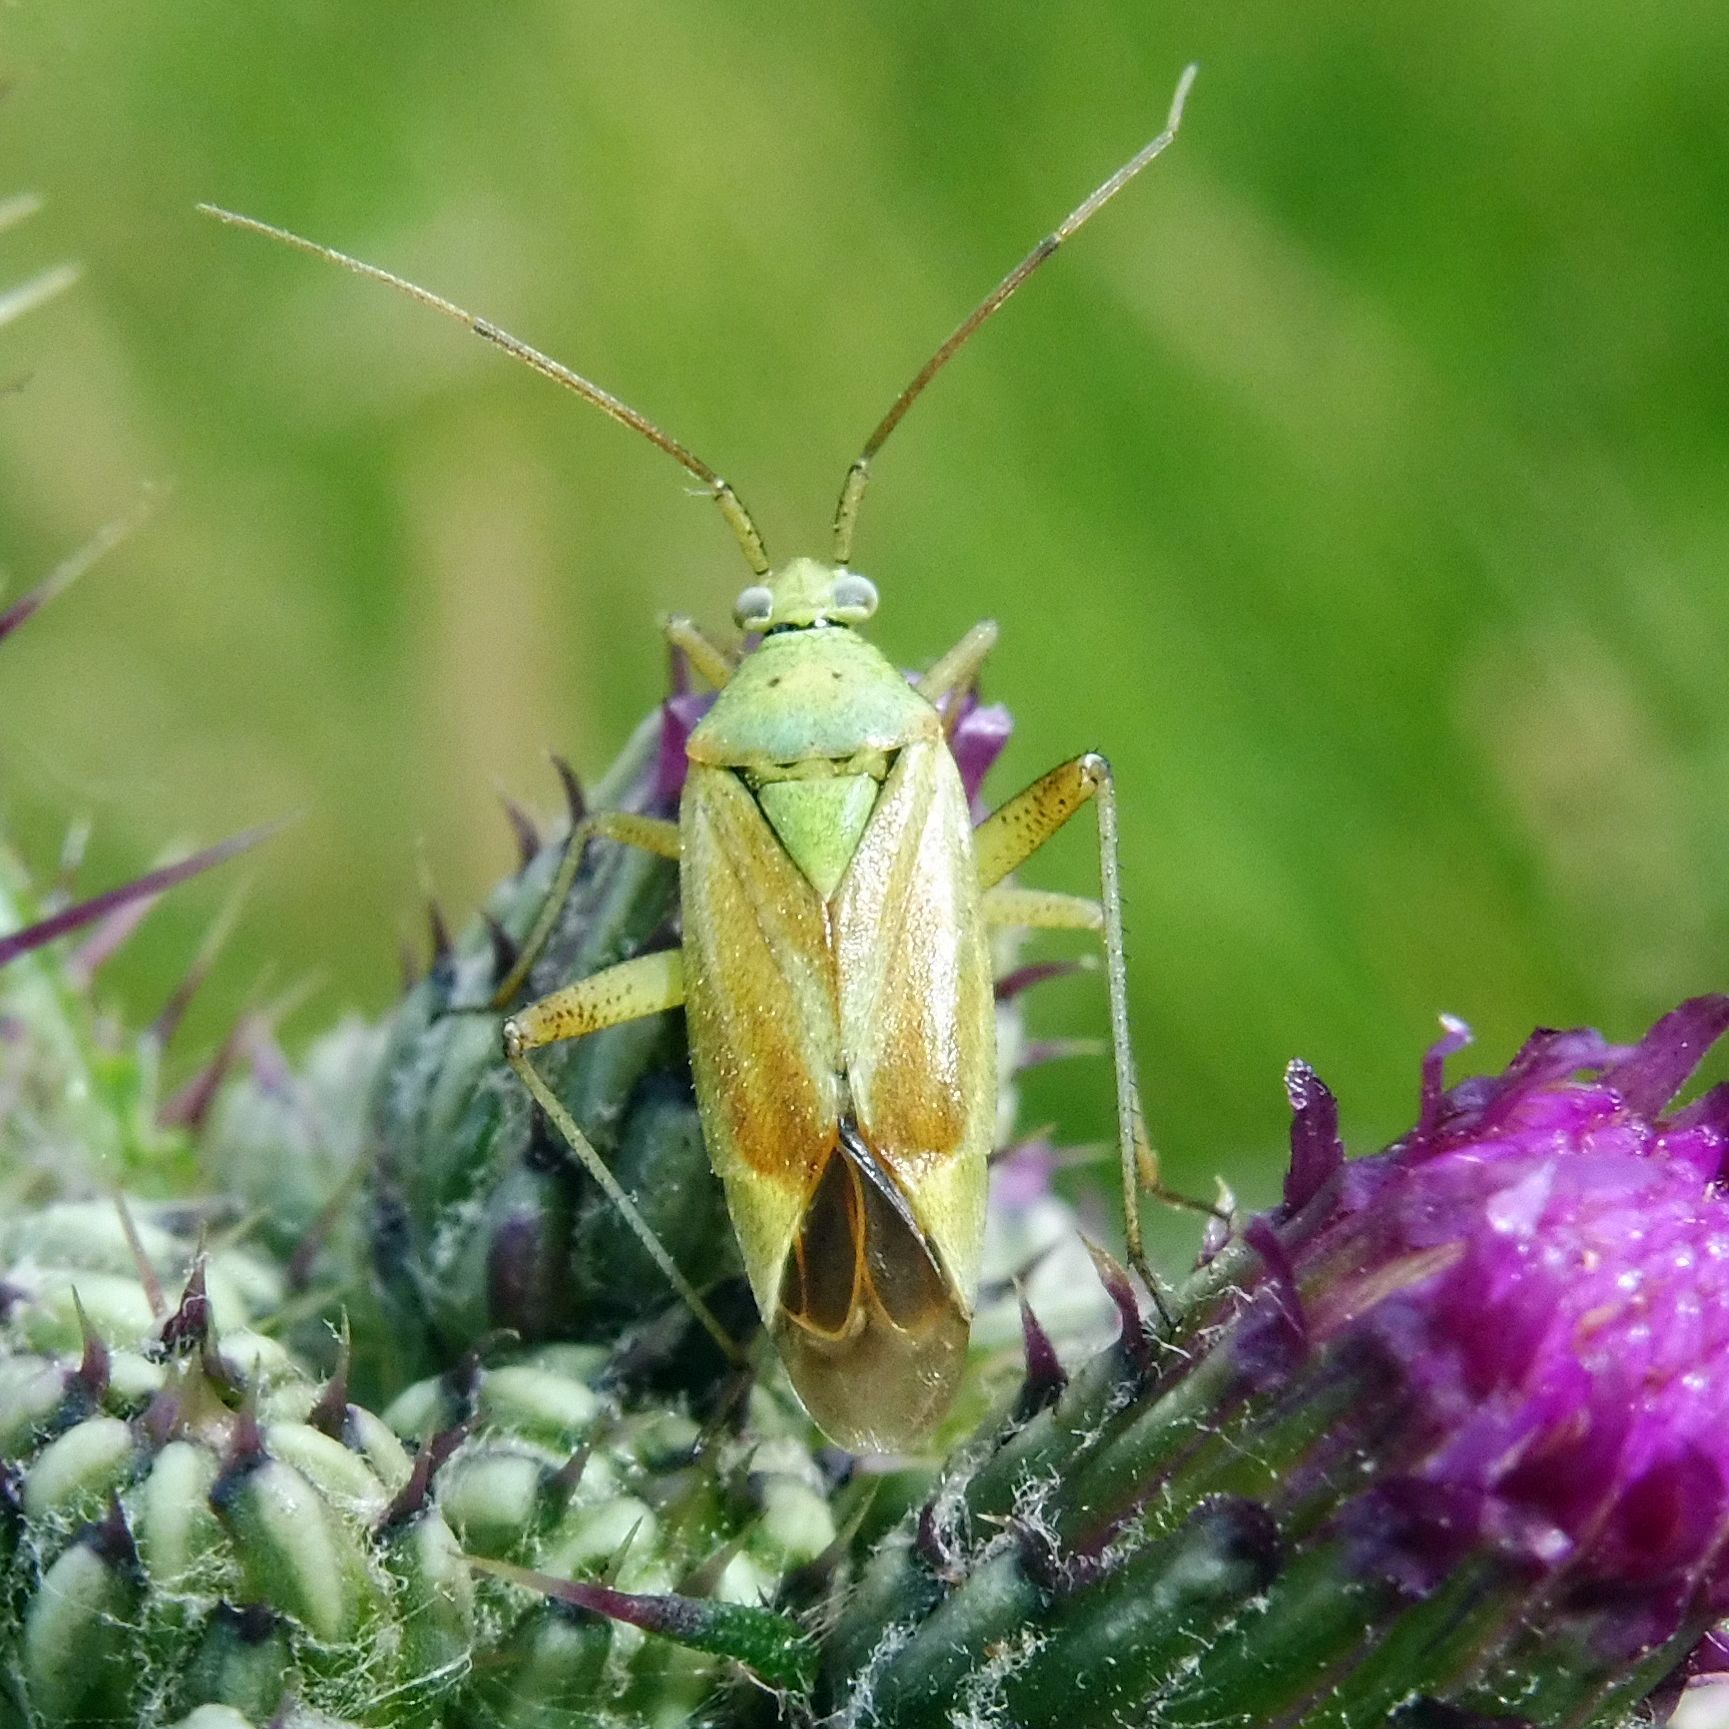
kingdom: Animalia
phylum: Arthropoda
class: Insecta
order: Hemiptera
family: Miridae
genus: Closterotomus
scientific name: Closterotomus norvegicus
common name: Plant bug
